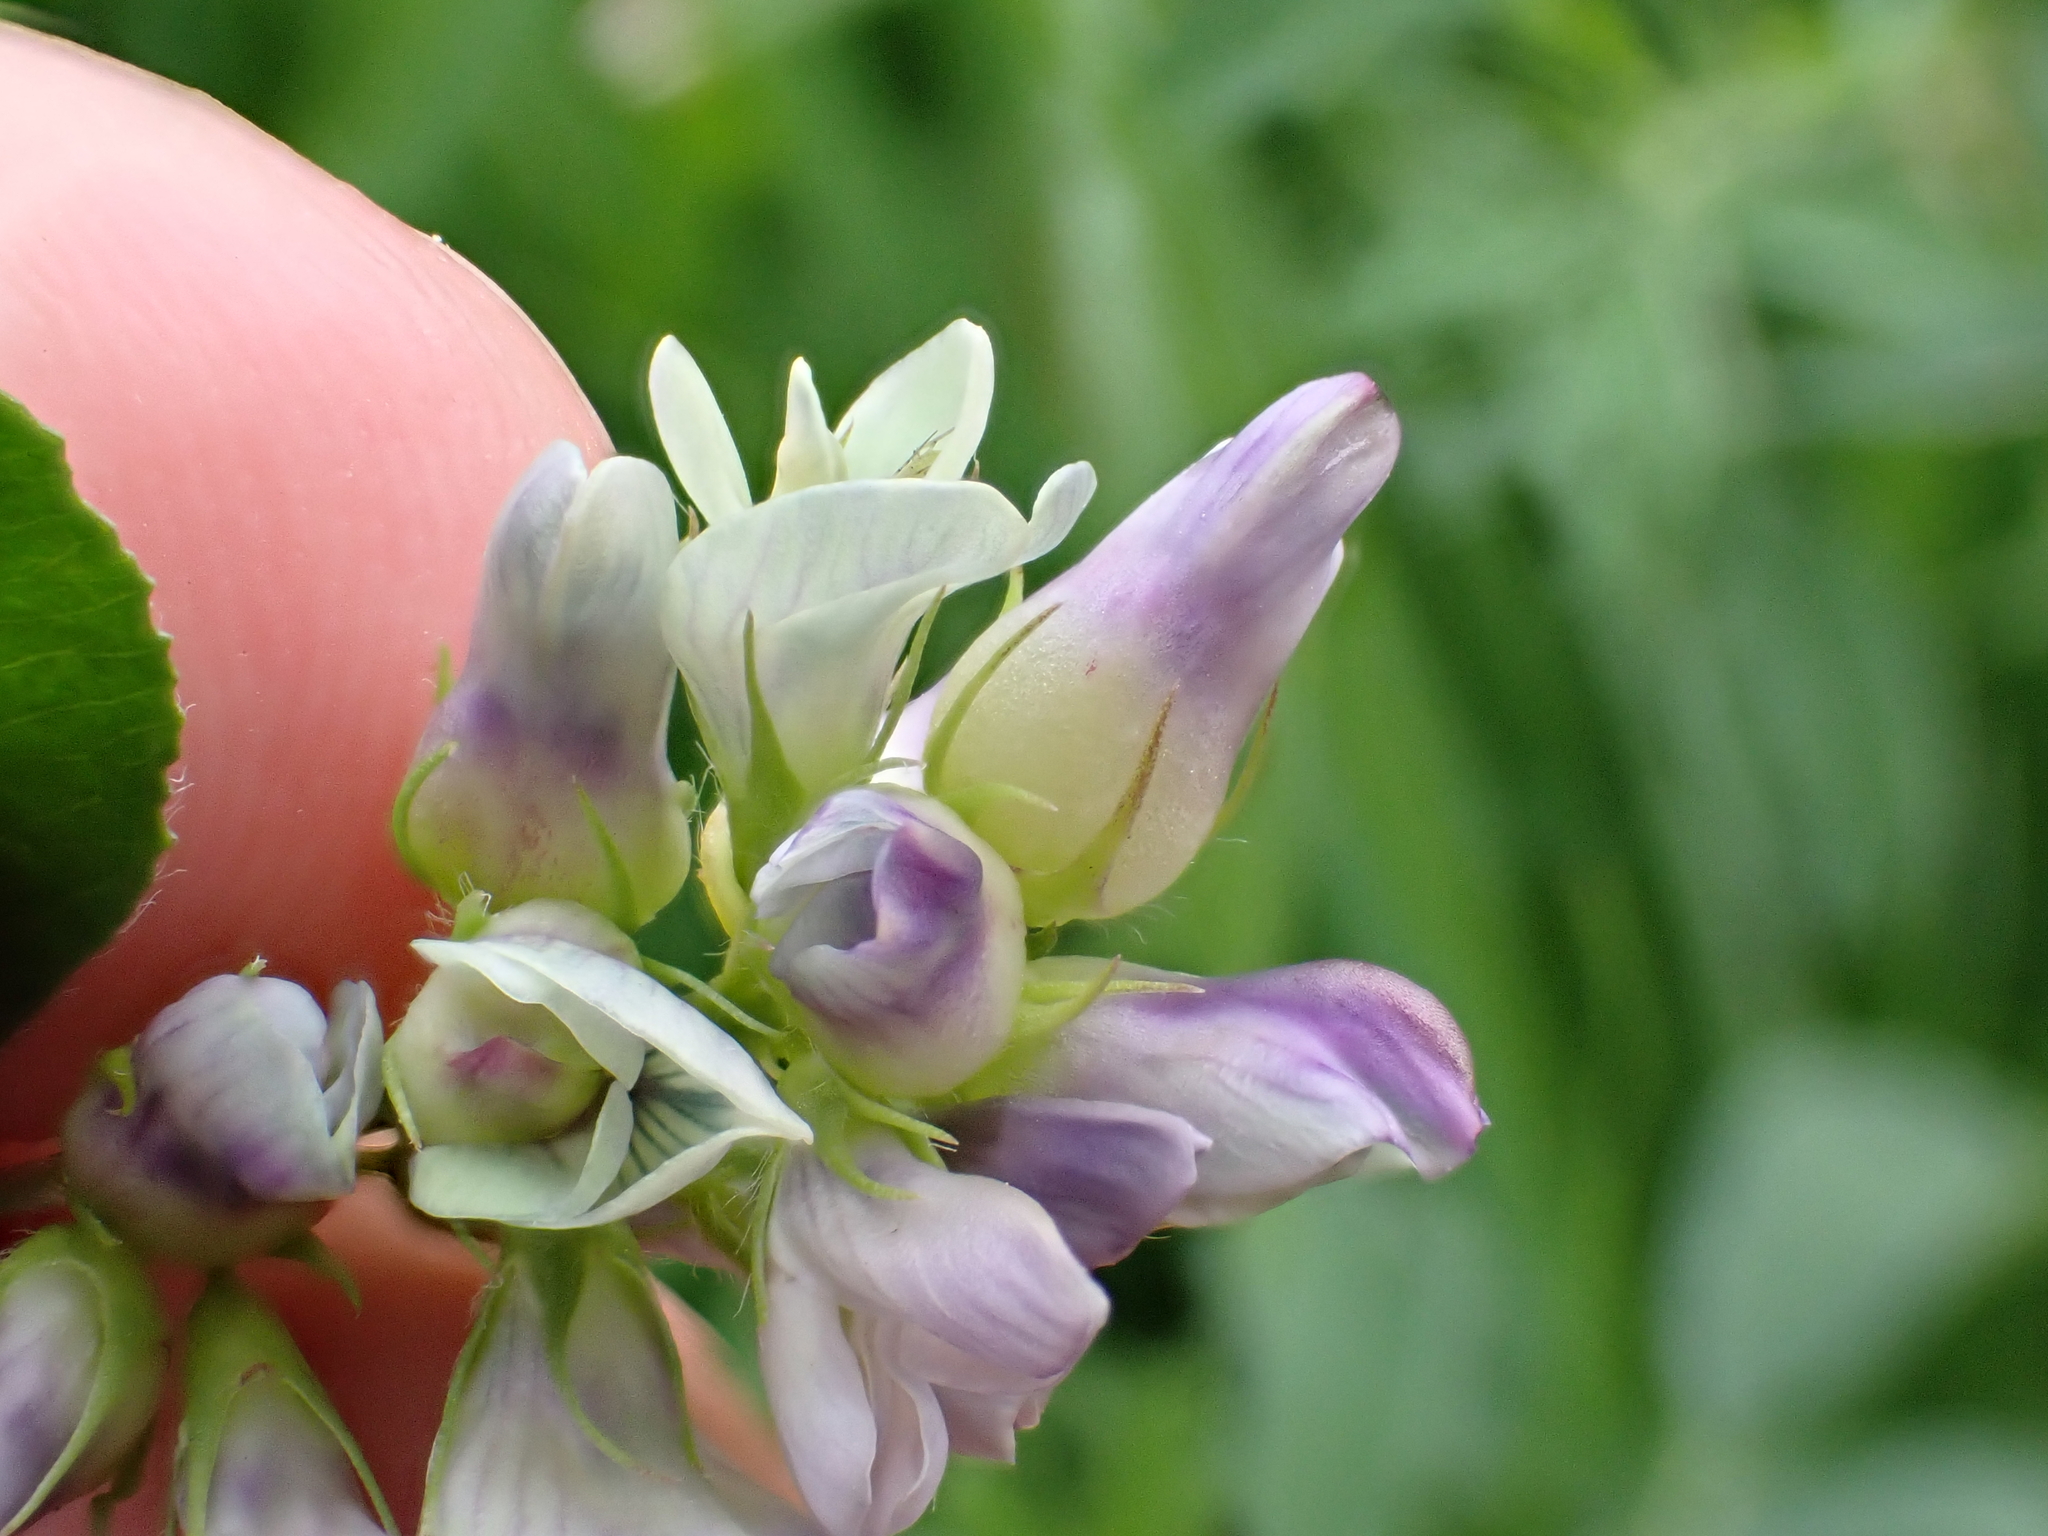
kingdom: Animalia
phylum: Arthropoda
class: Insecta
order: Diptera
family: Cecidomyiidae
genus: Contarinia
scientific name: Contarinia medicaginis
